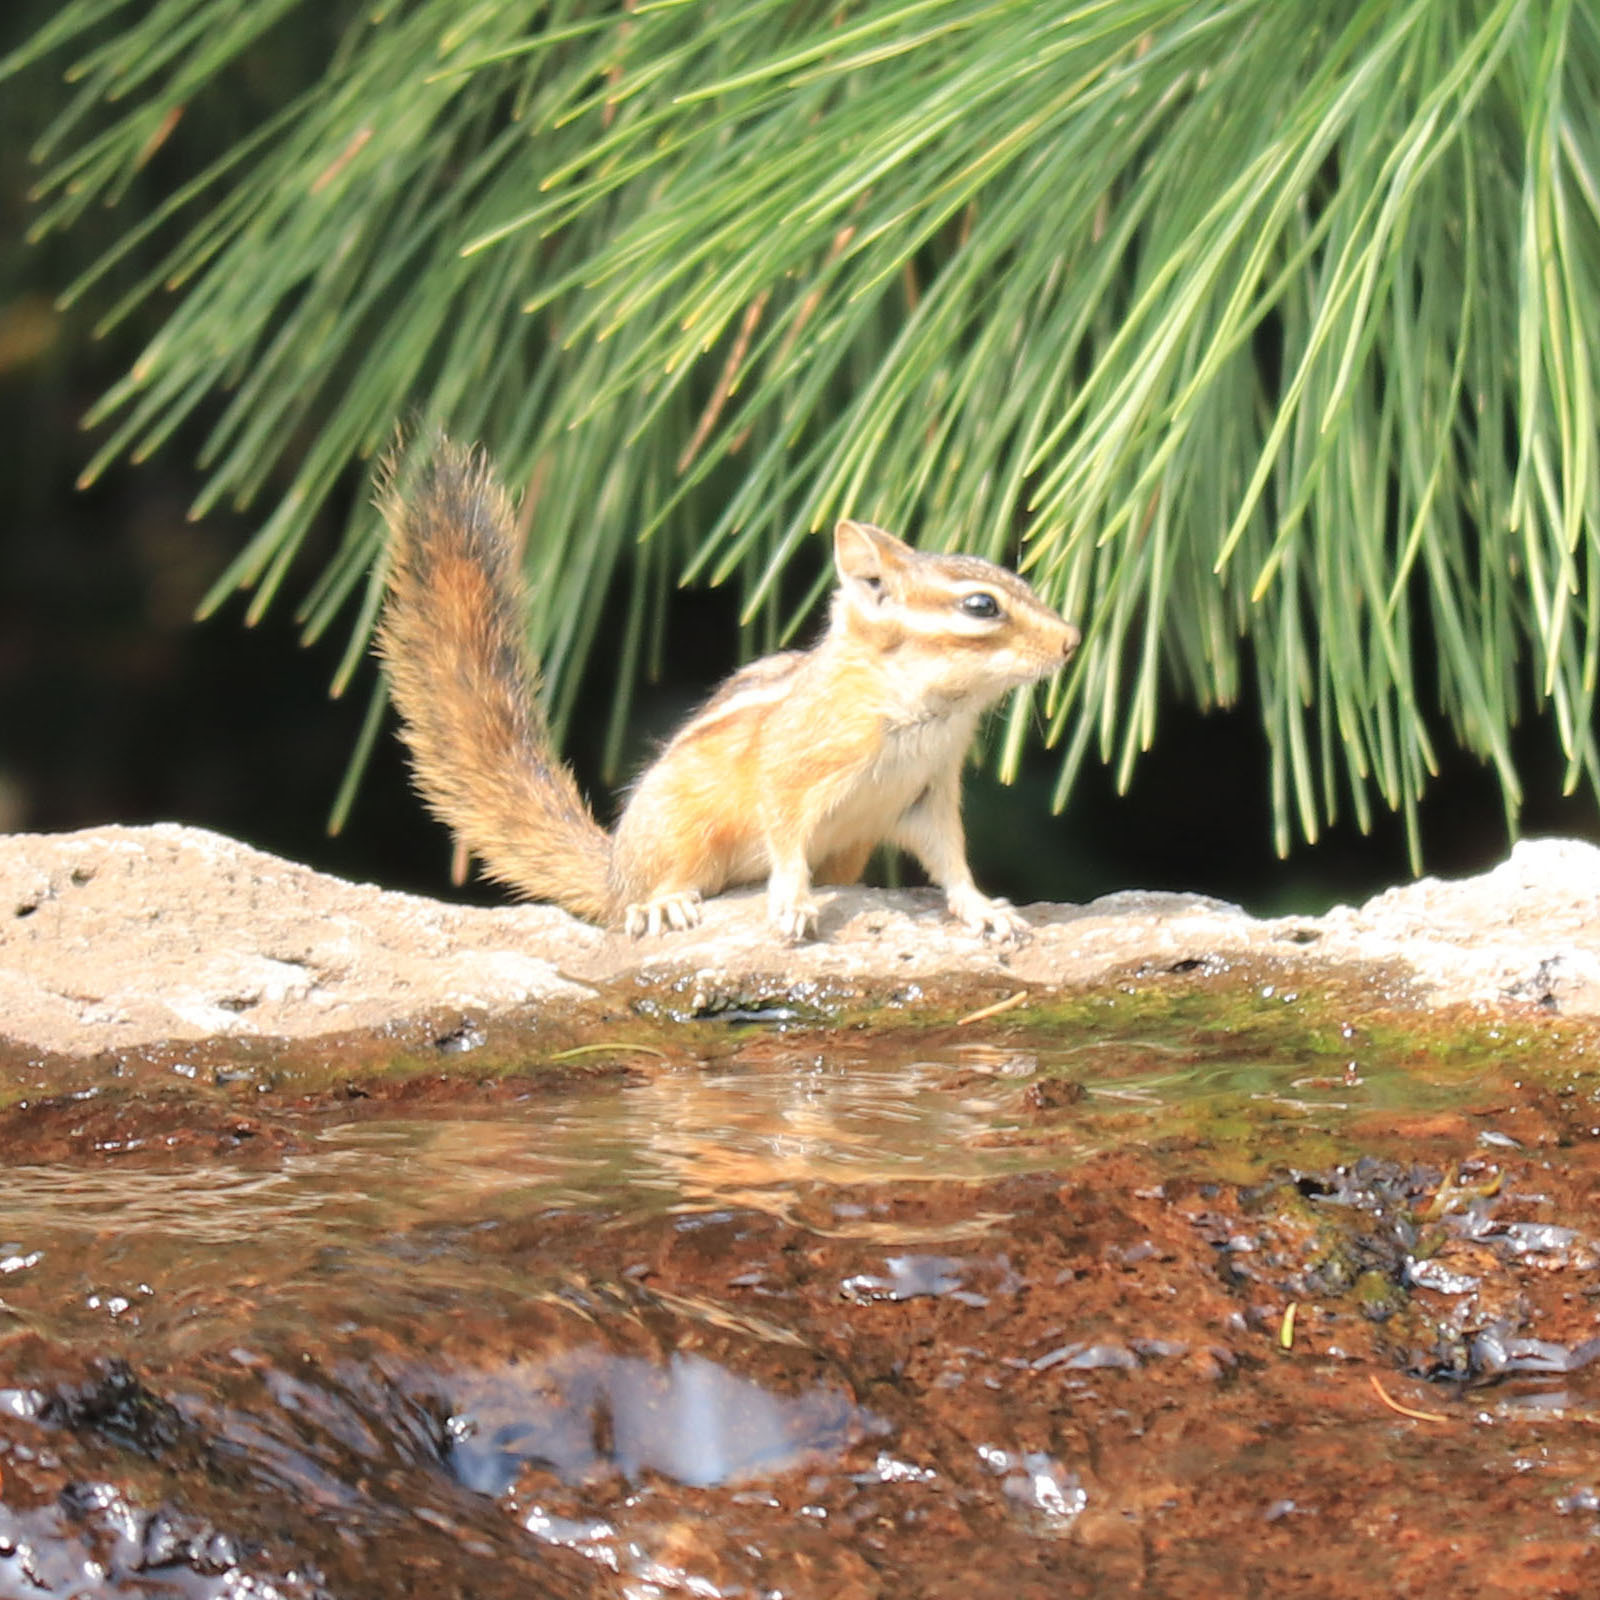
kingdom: Animalia
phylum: Chordata
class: Mammalia
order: Rodentia
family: Sciuridae
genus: Tamias
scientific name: Tamias amoenus
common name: Yellow-pine chipmunk
